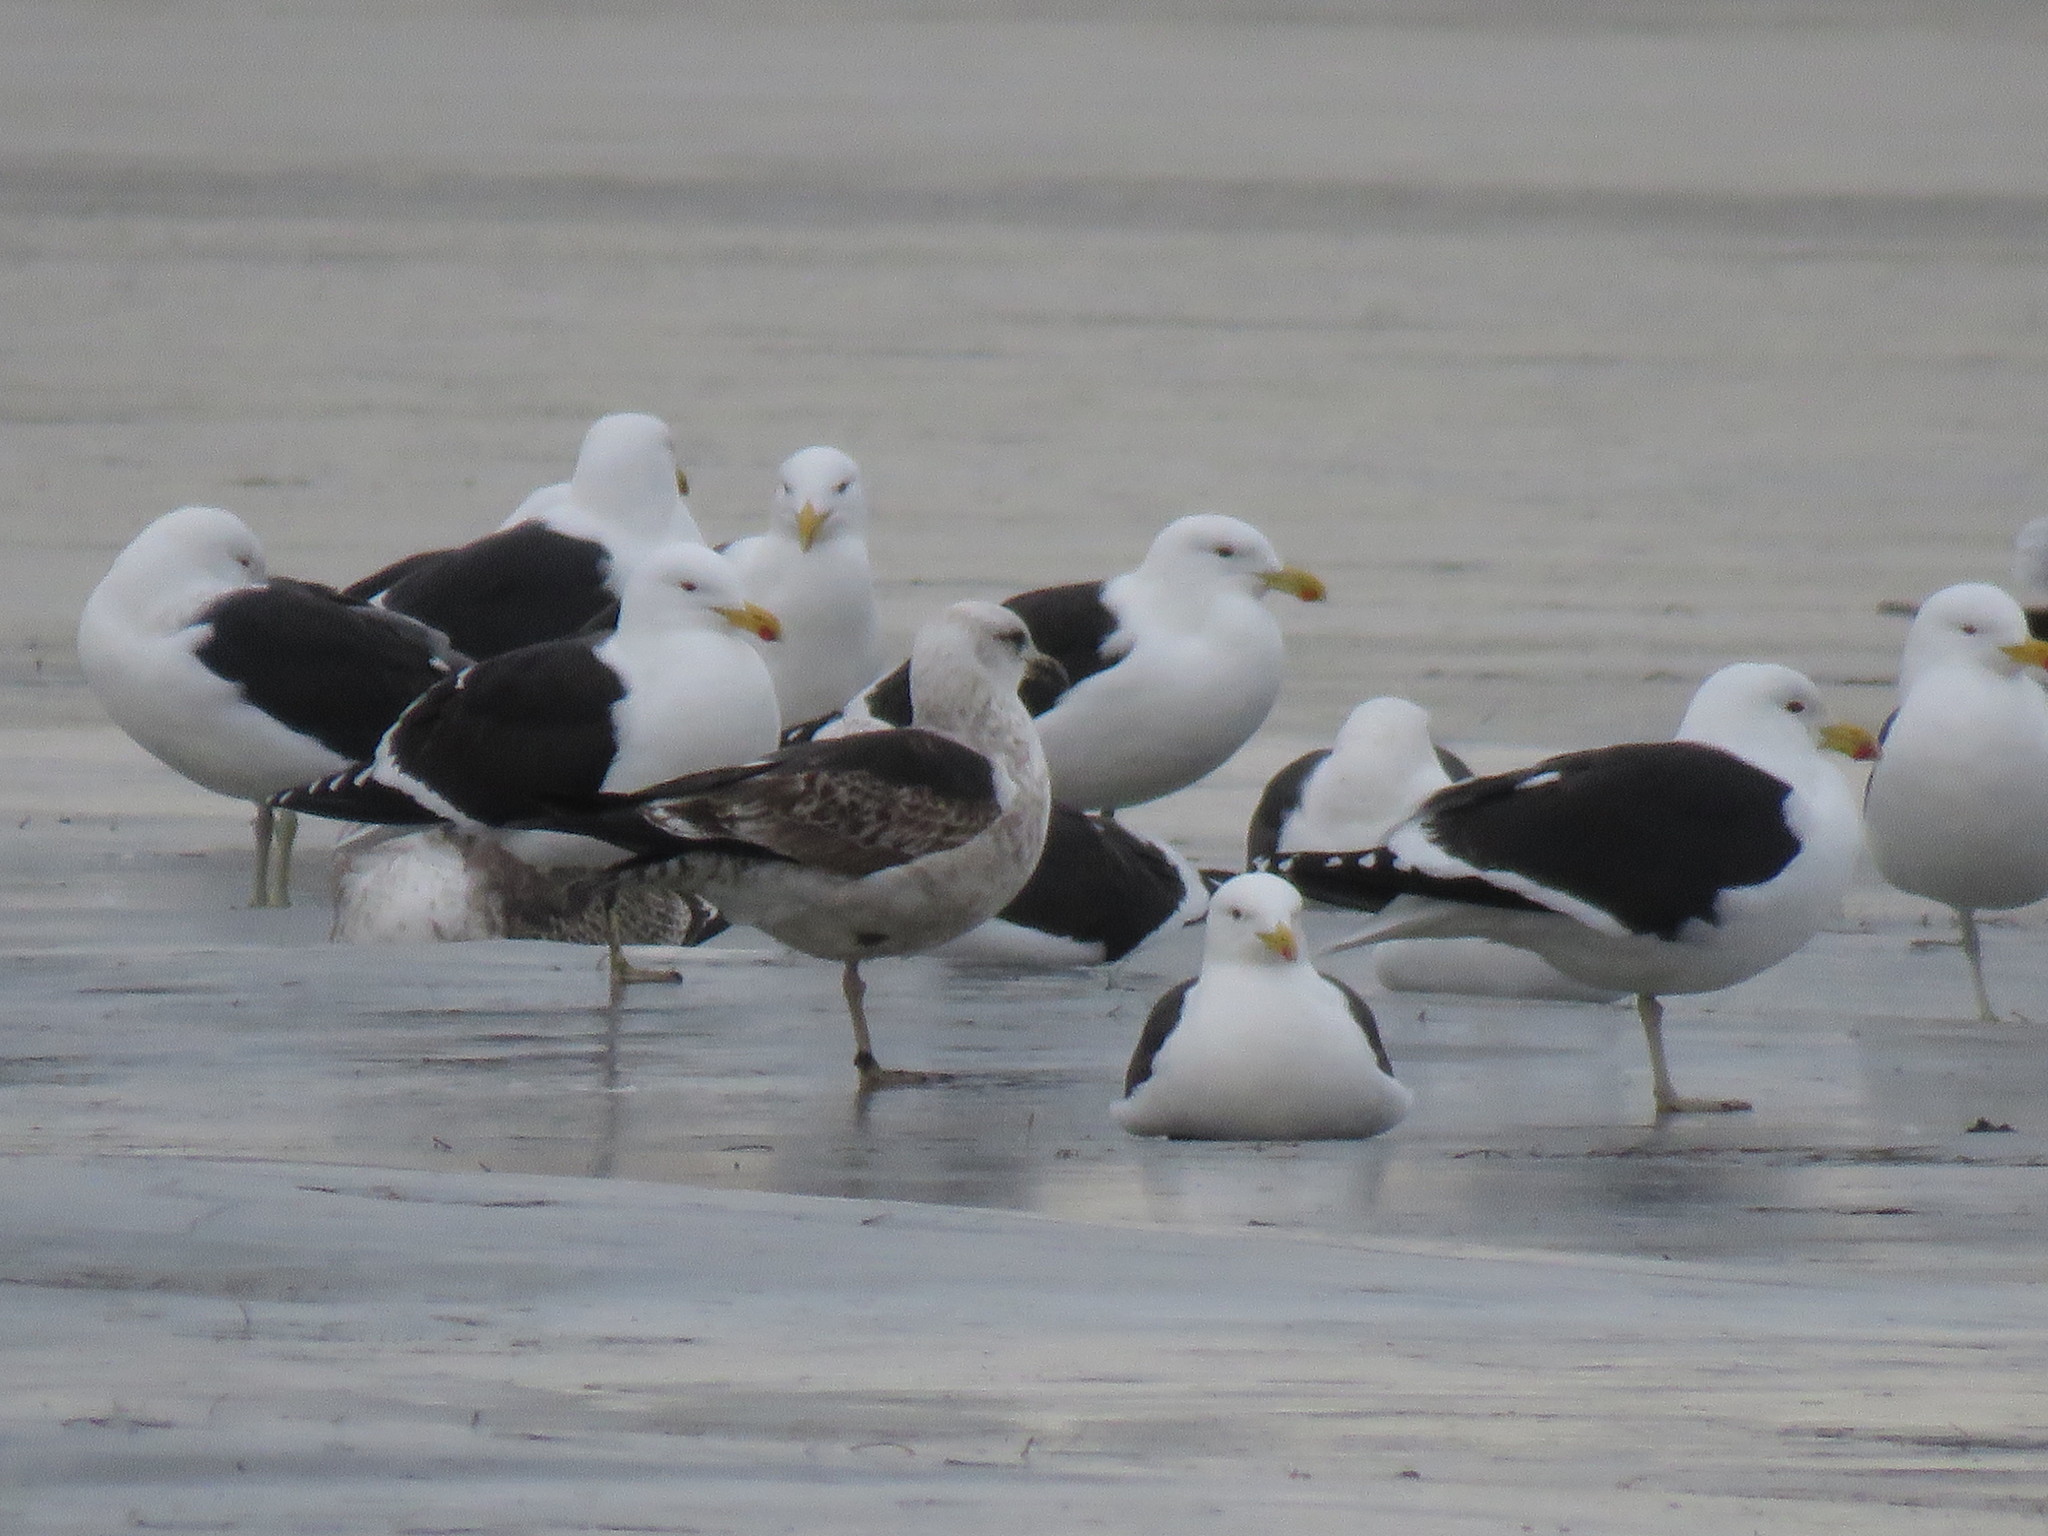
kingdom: Animalia
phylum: Chordata
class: Aves
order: Charadriiformes
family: Laridae
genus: Larus
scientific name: Larus dominicanus
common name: Kelp gull
